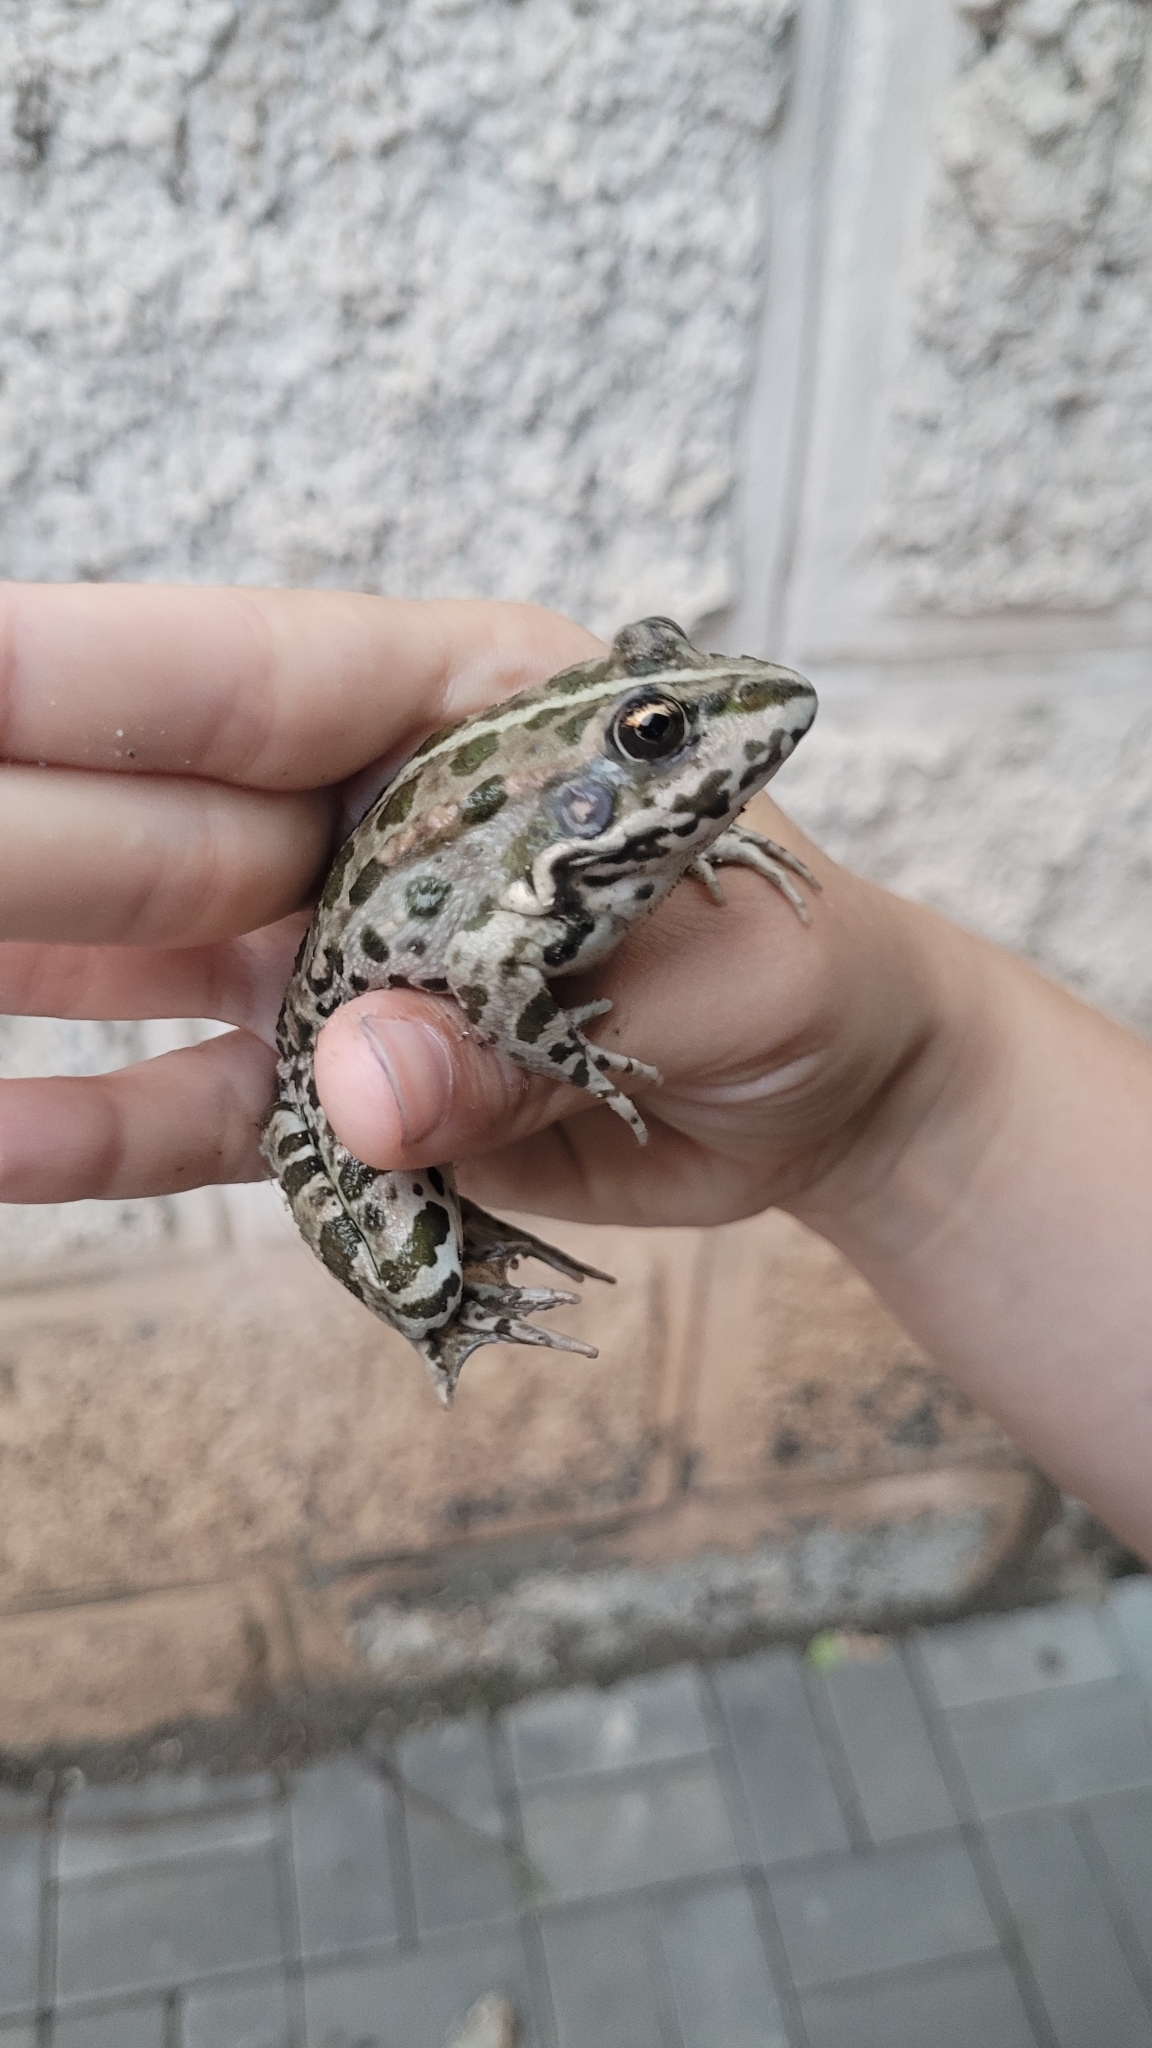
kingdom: Animalia
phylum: Chordata
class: Amphibia
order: Anura
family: Ranidae
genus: Pelophylax
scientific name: Pelophylax ridibundus
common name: Marsh frog
